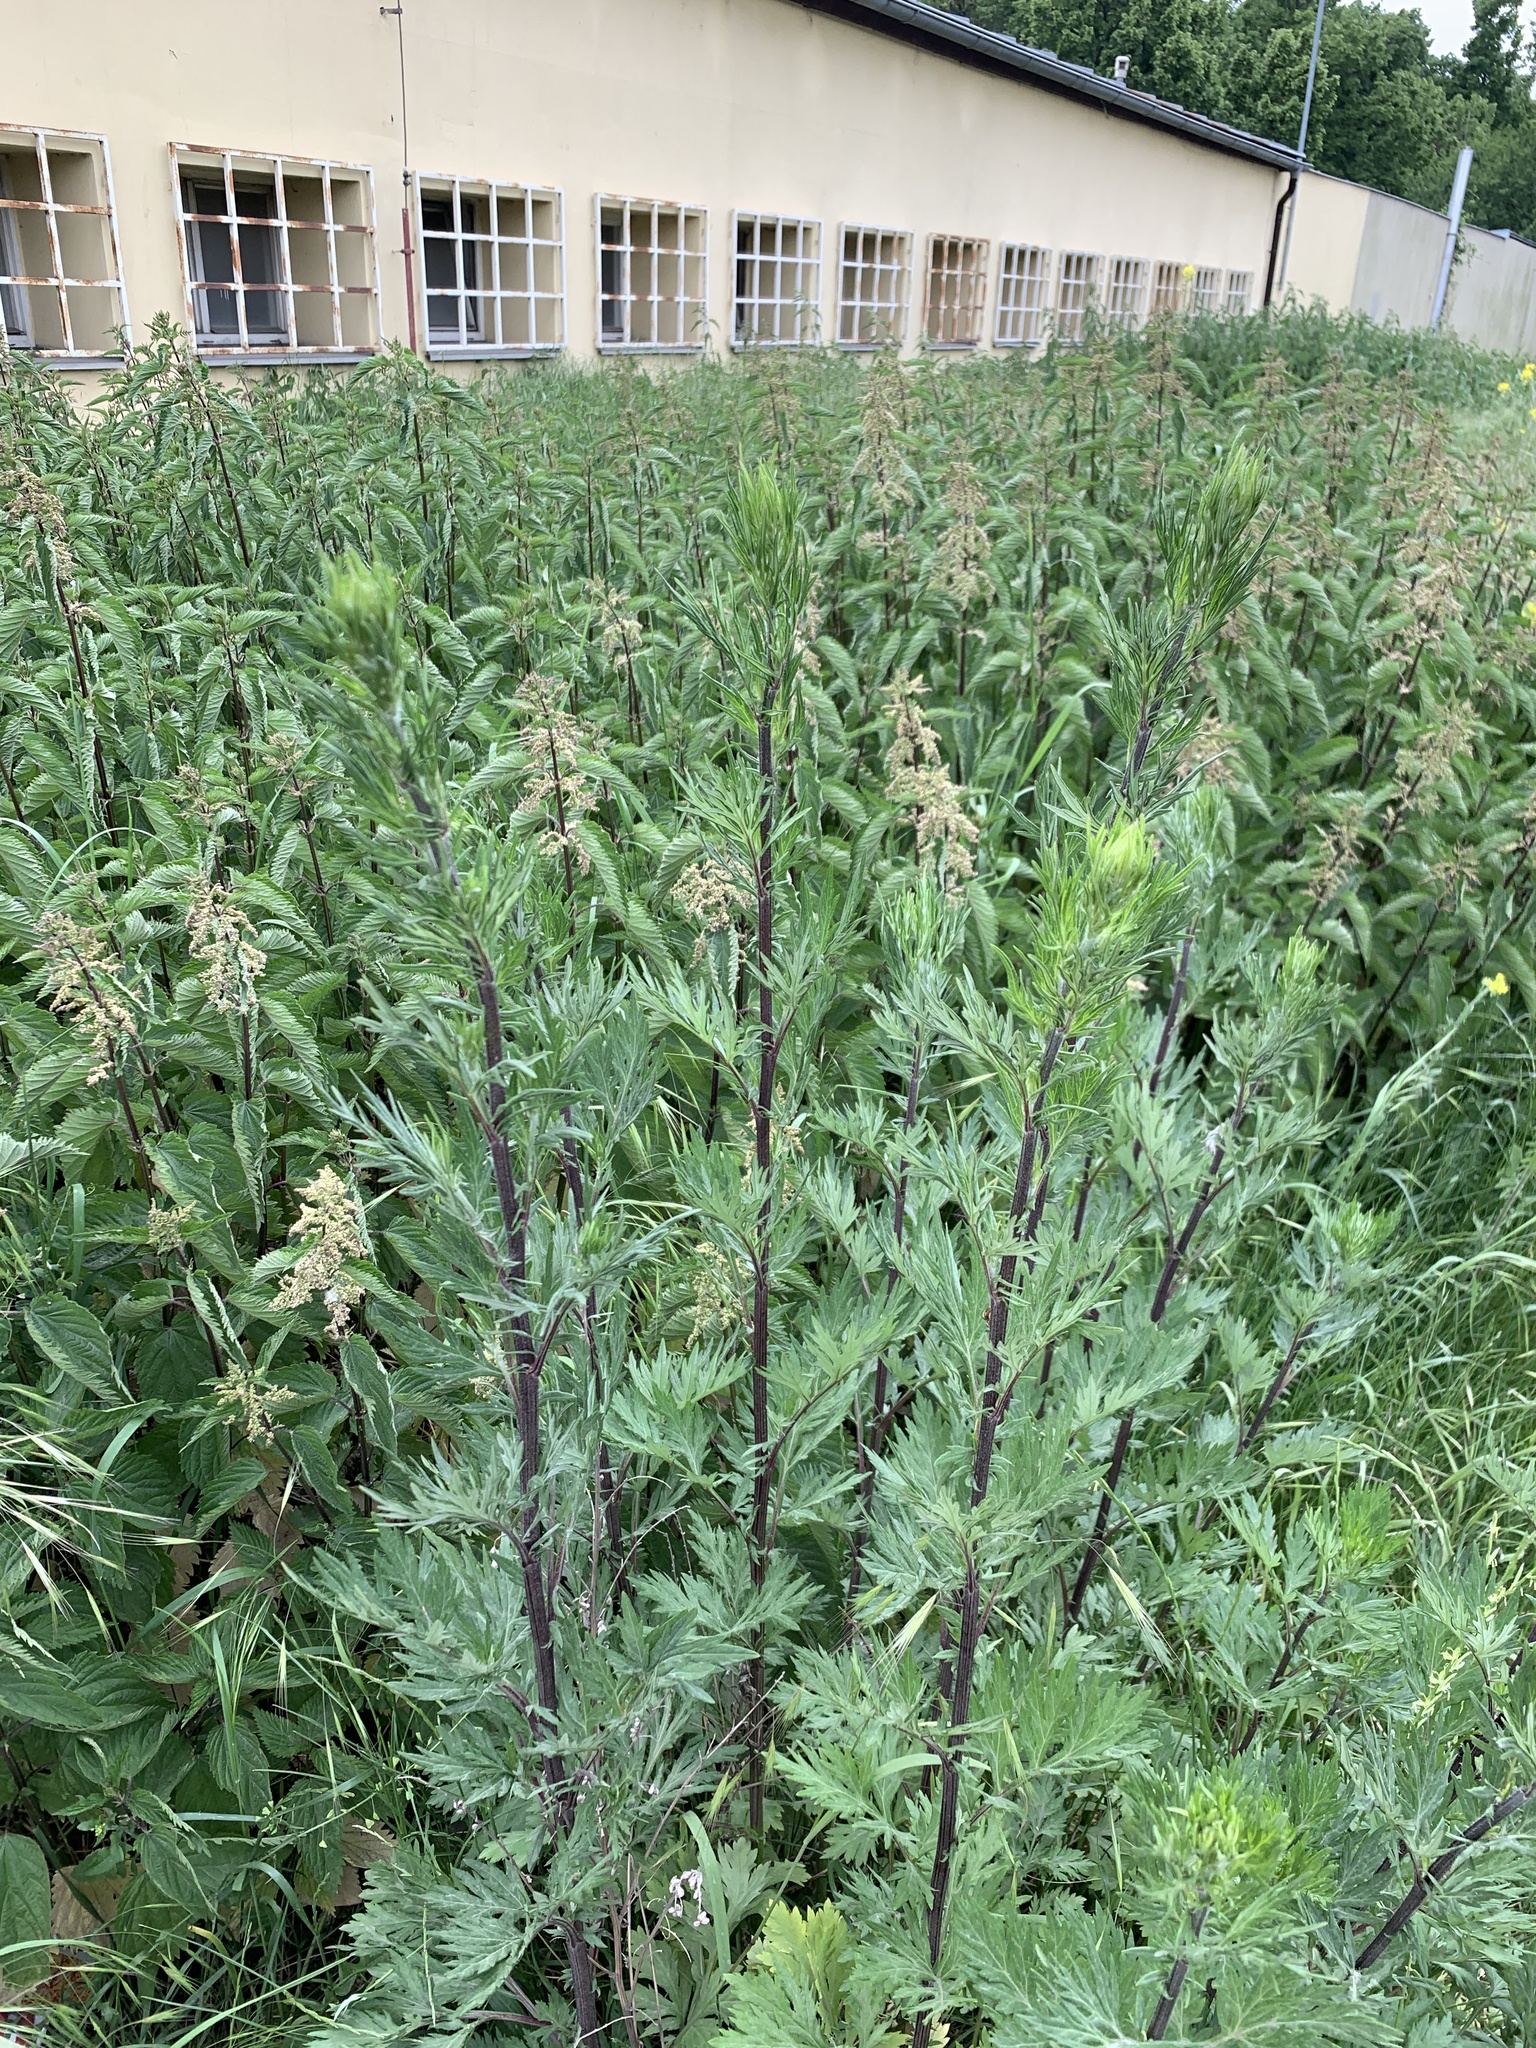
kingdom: Plantae
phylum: Tracheophyta
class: Magnoliopsida
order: Asterales
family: Asteraceae
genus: Artemisia
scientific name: Artemisia vulgaris
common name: Mugwort
